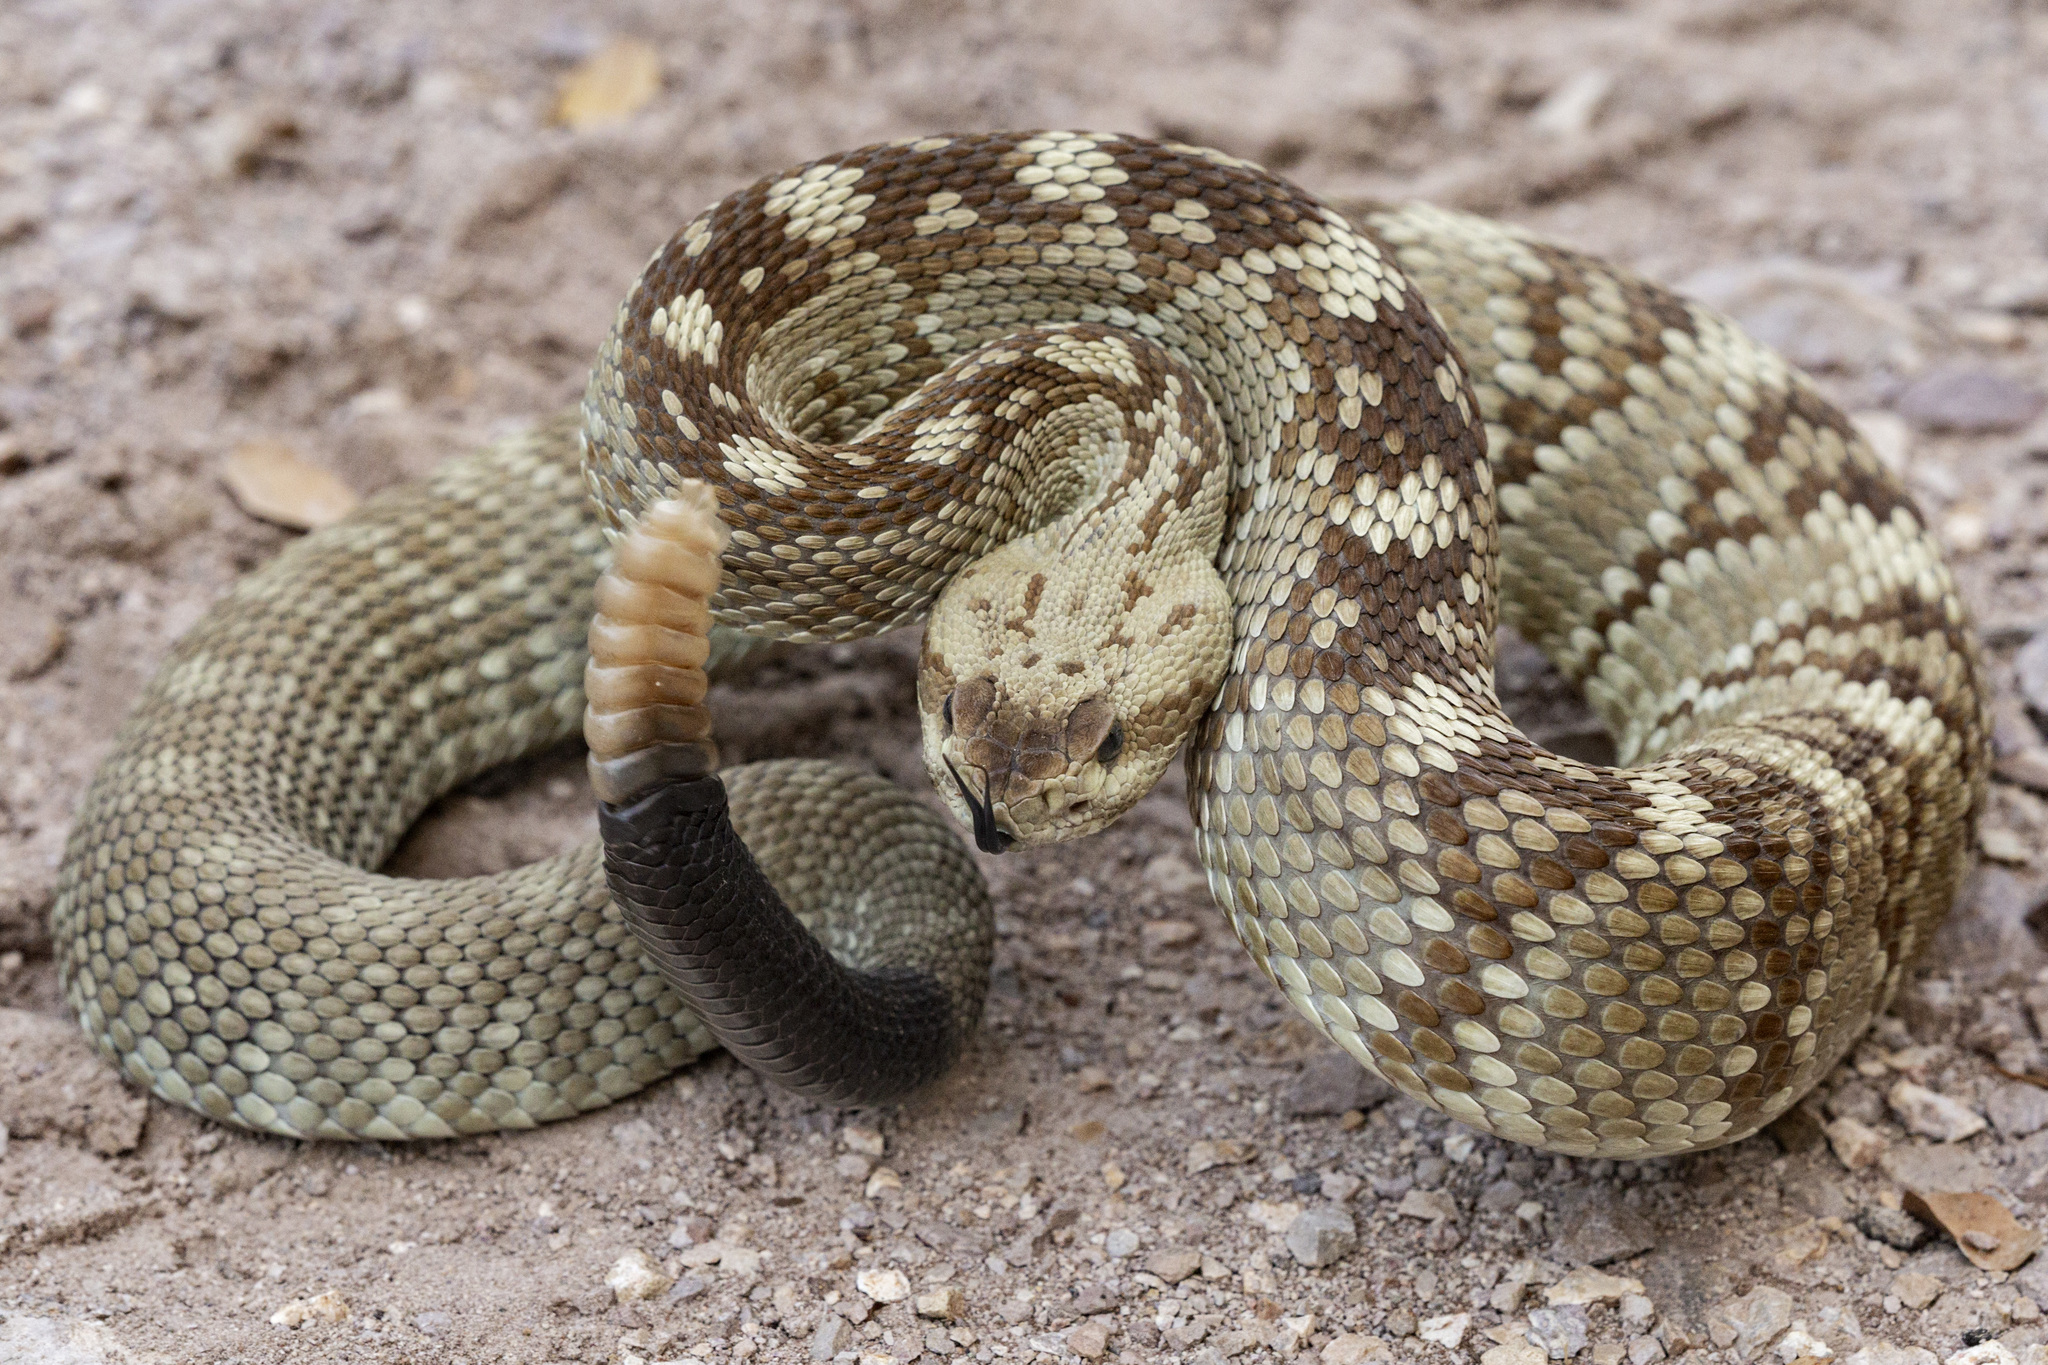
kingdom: Animalia
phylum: Chordata
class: Squamata
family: Viperidae
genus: Crotalus
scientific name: Crotalus ornatus
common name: Black-tailed rattlesnake
